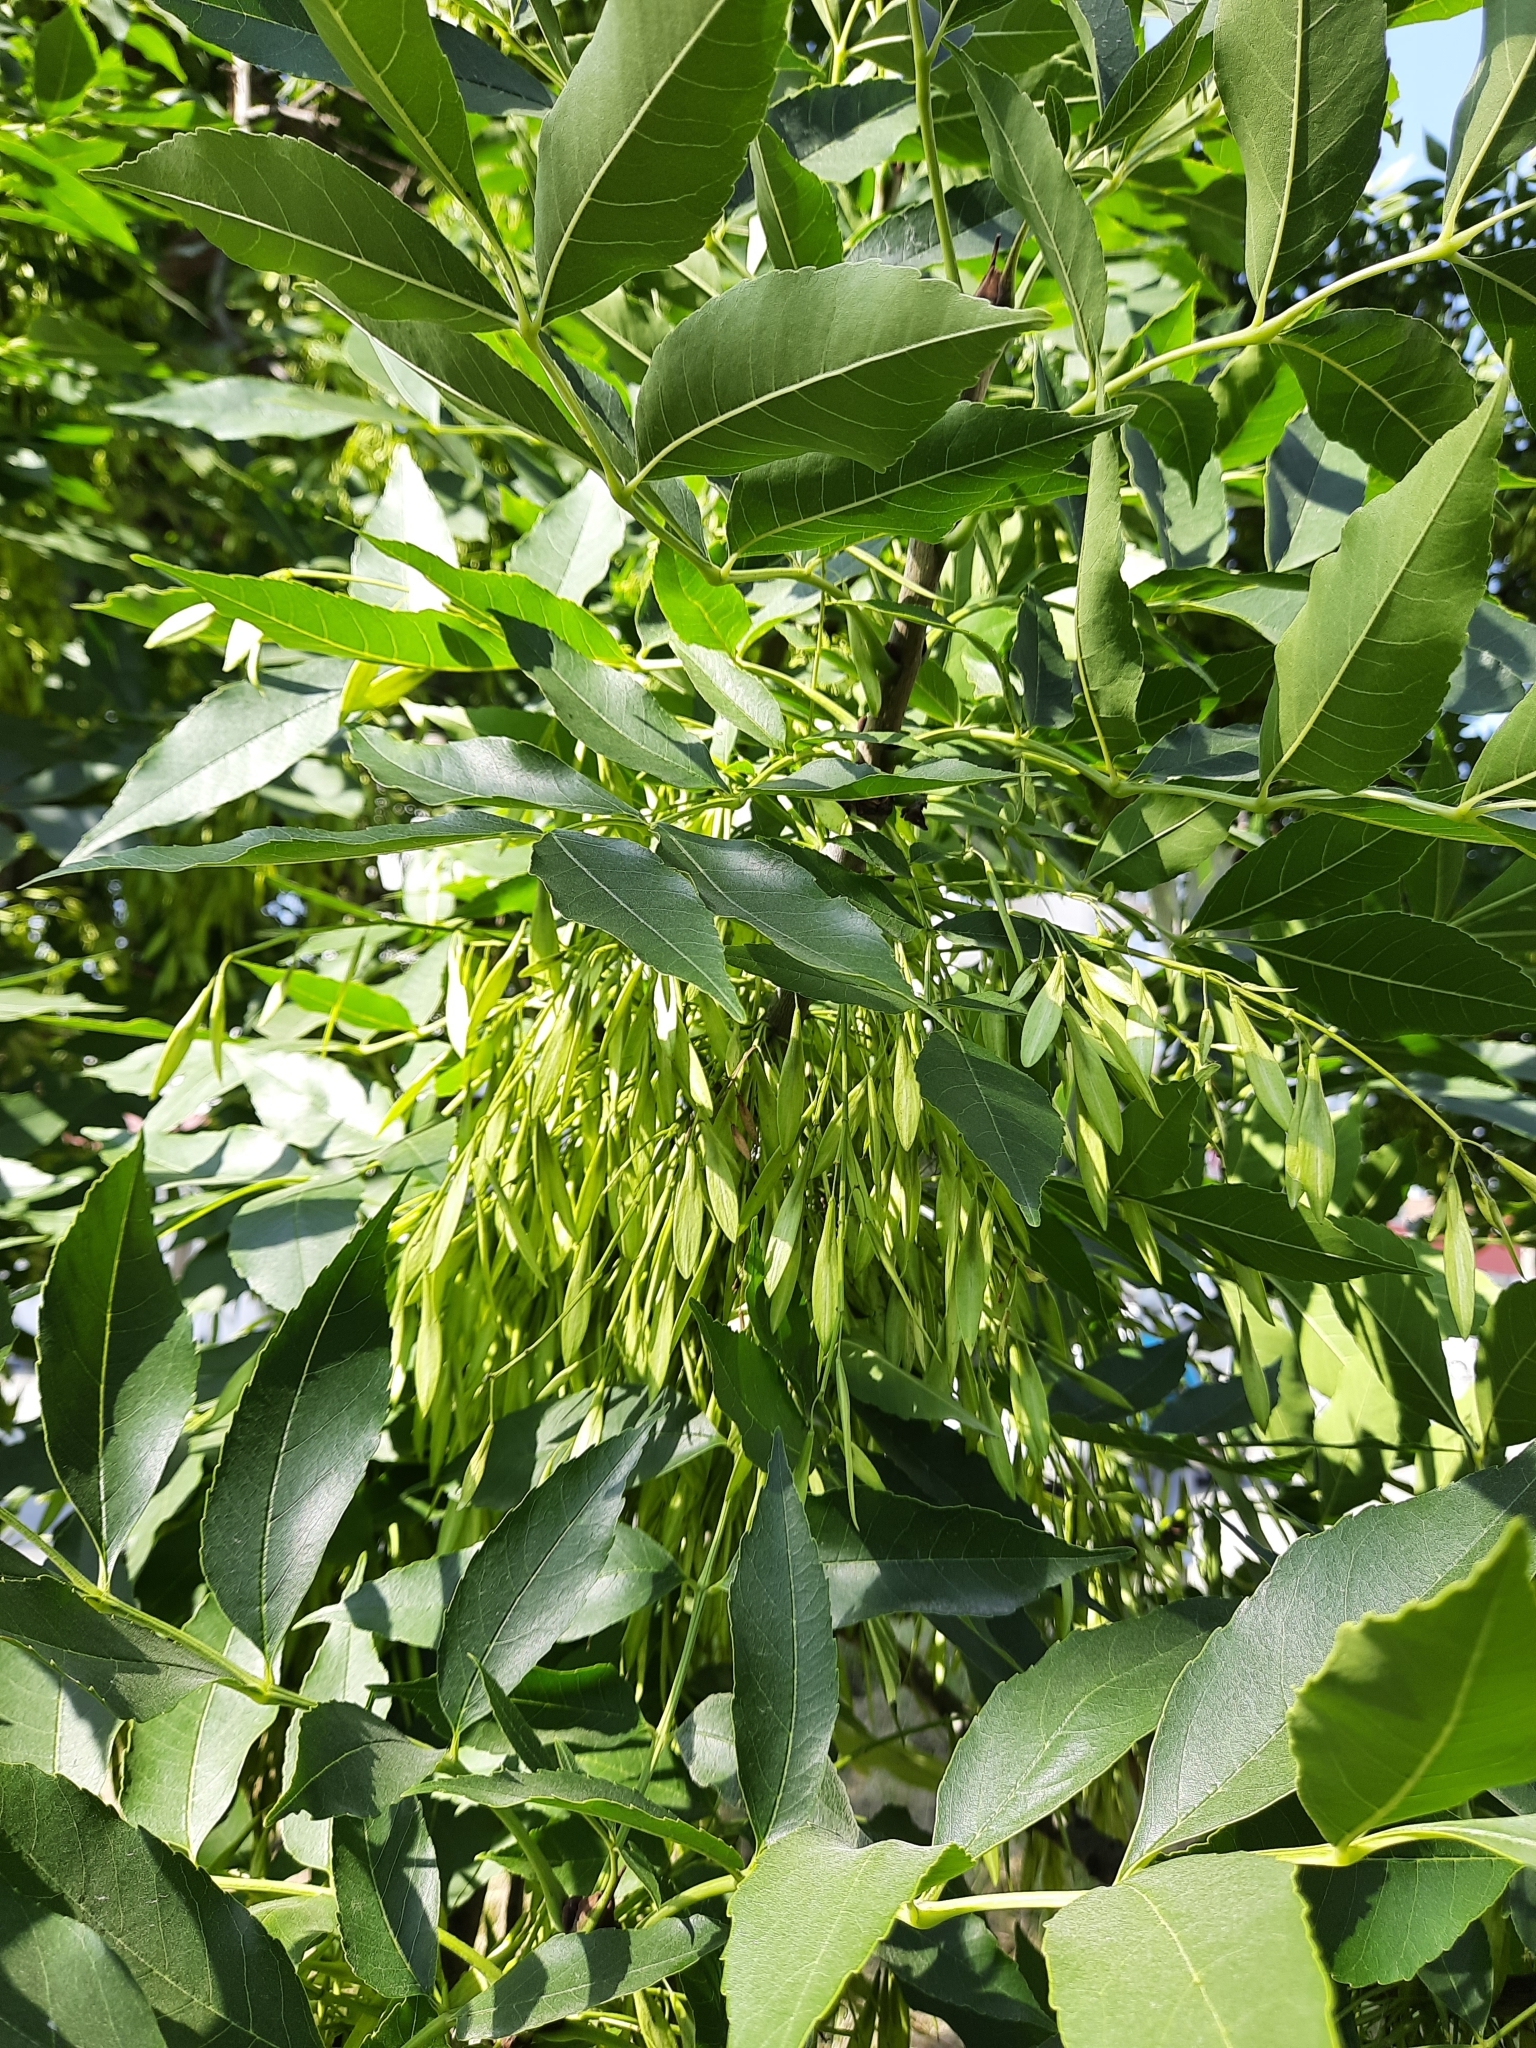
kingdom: Plantae
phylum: Tracheophyta
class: Magnoliopsida
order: Lamiales
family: Oleaceae
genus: Fraxinus
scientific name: Fraxinus excelsior
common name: European ash
